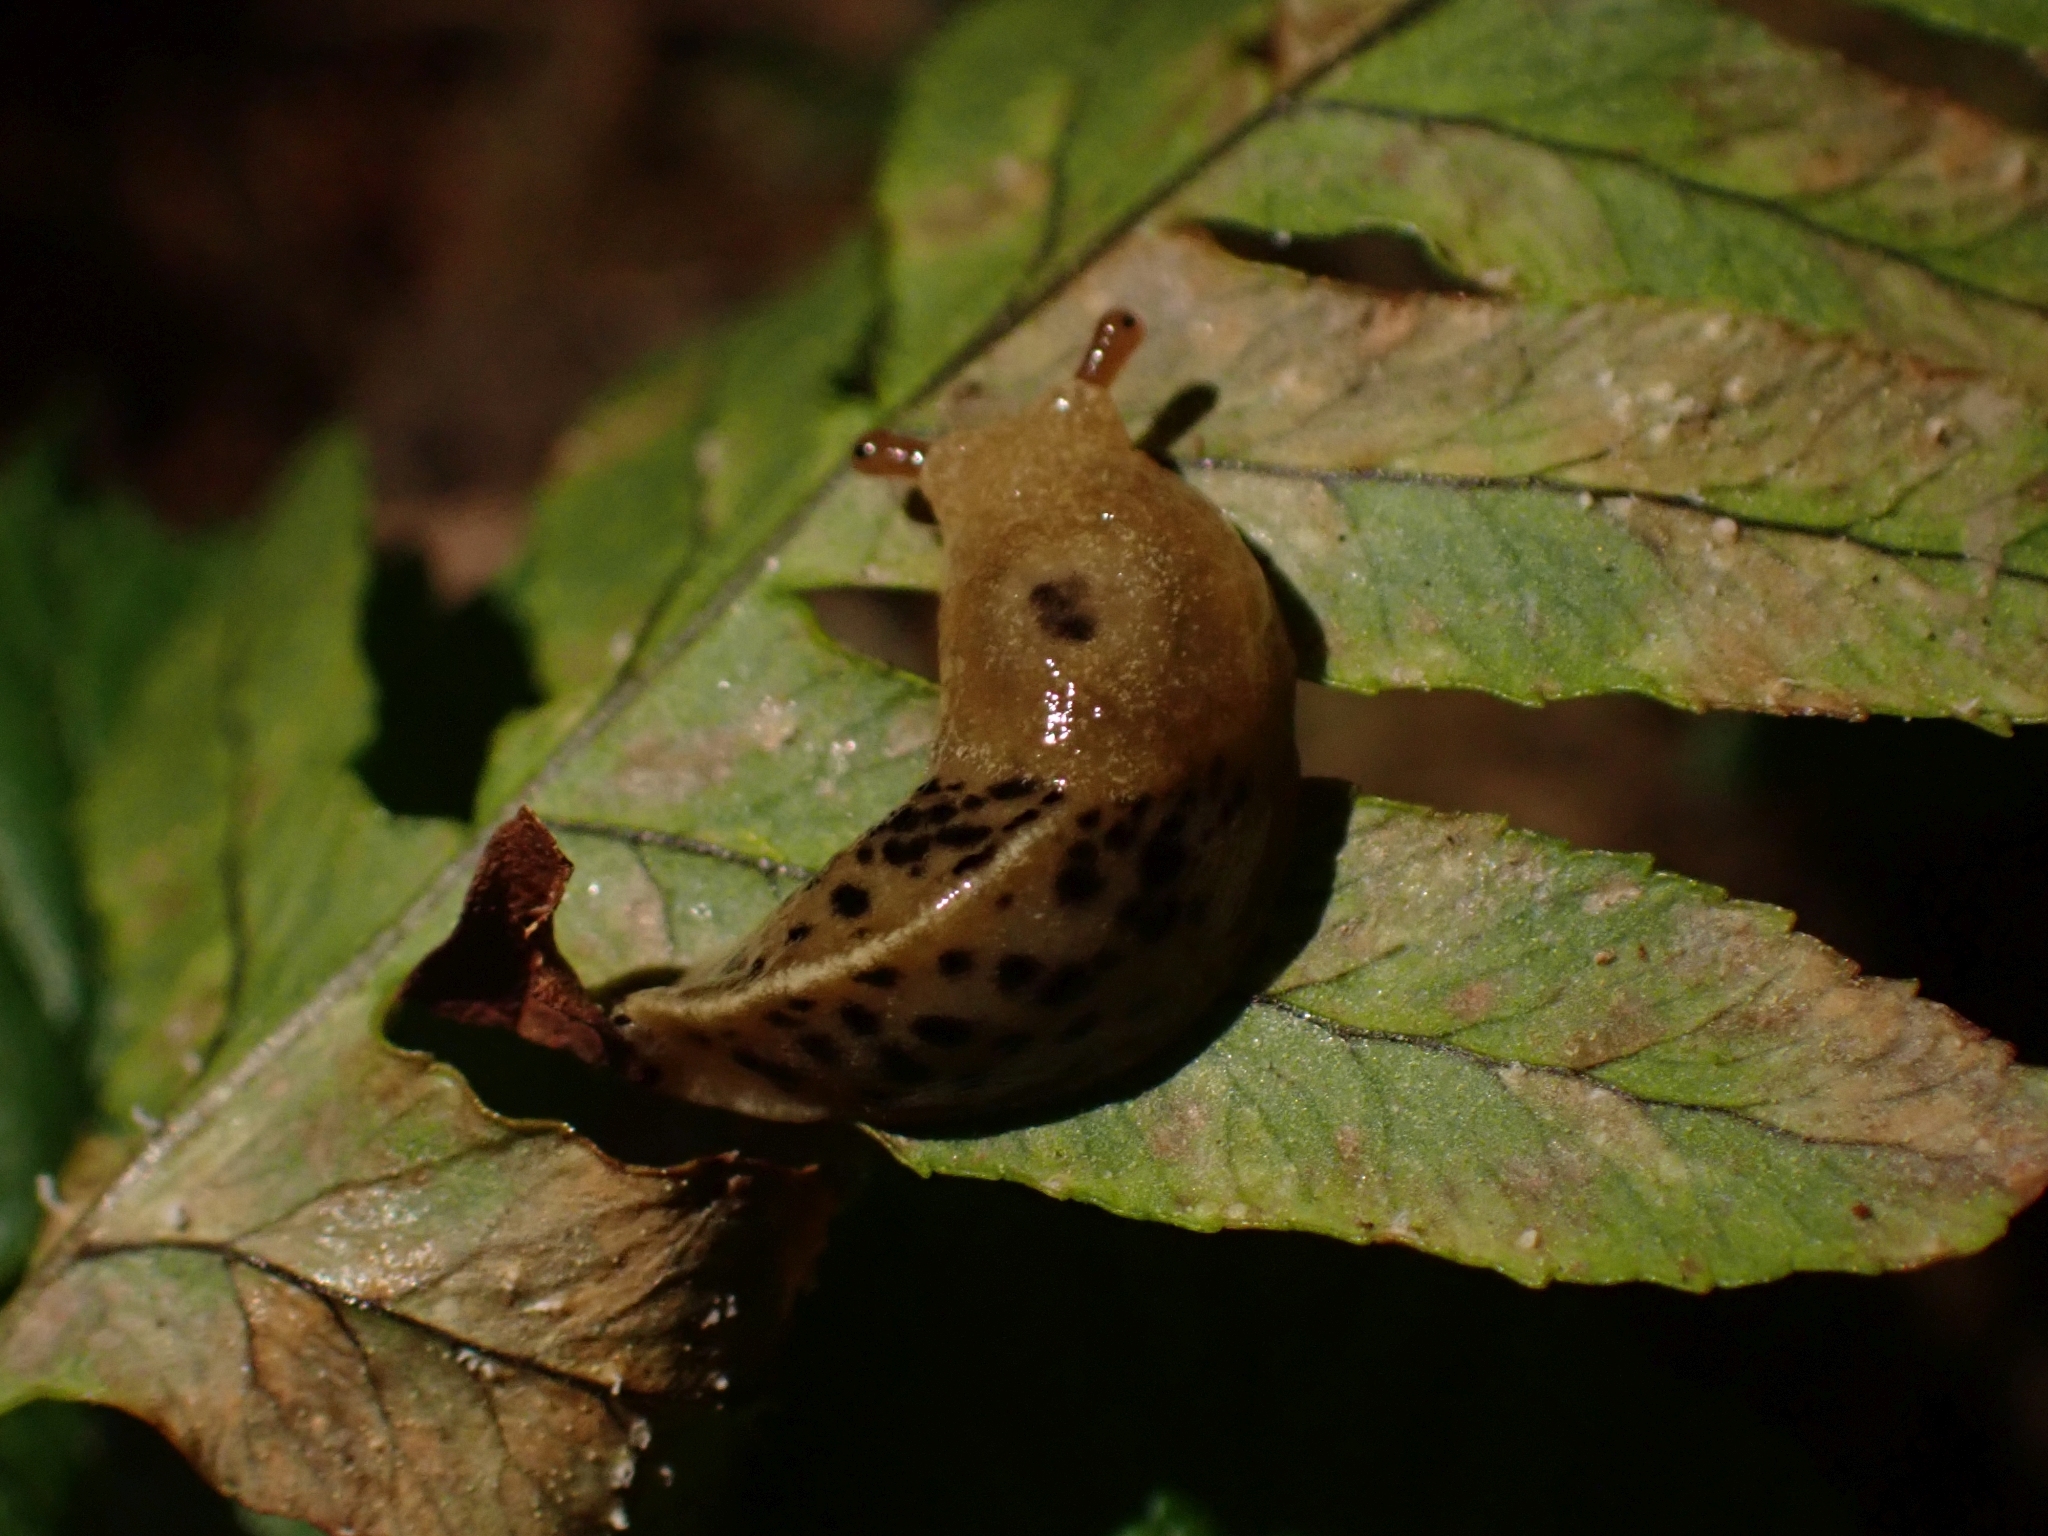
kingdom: Animalia
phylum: Mollusca
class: Gastropoda
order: Stylommatophora
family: Ariolimacidae
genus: Ariolimax
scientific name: Ariolimax columbianus
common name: Pacific banana slug
